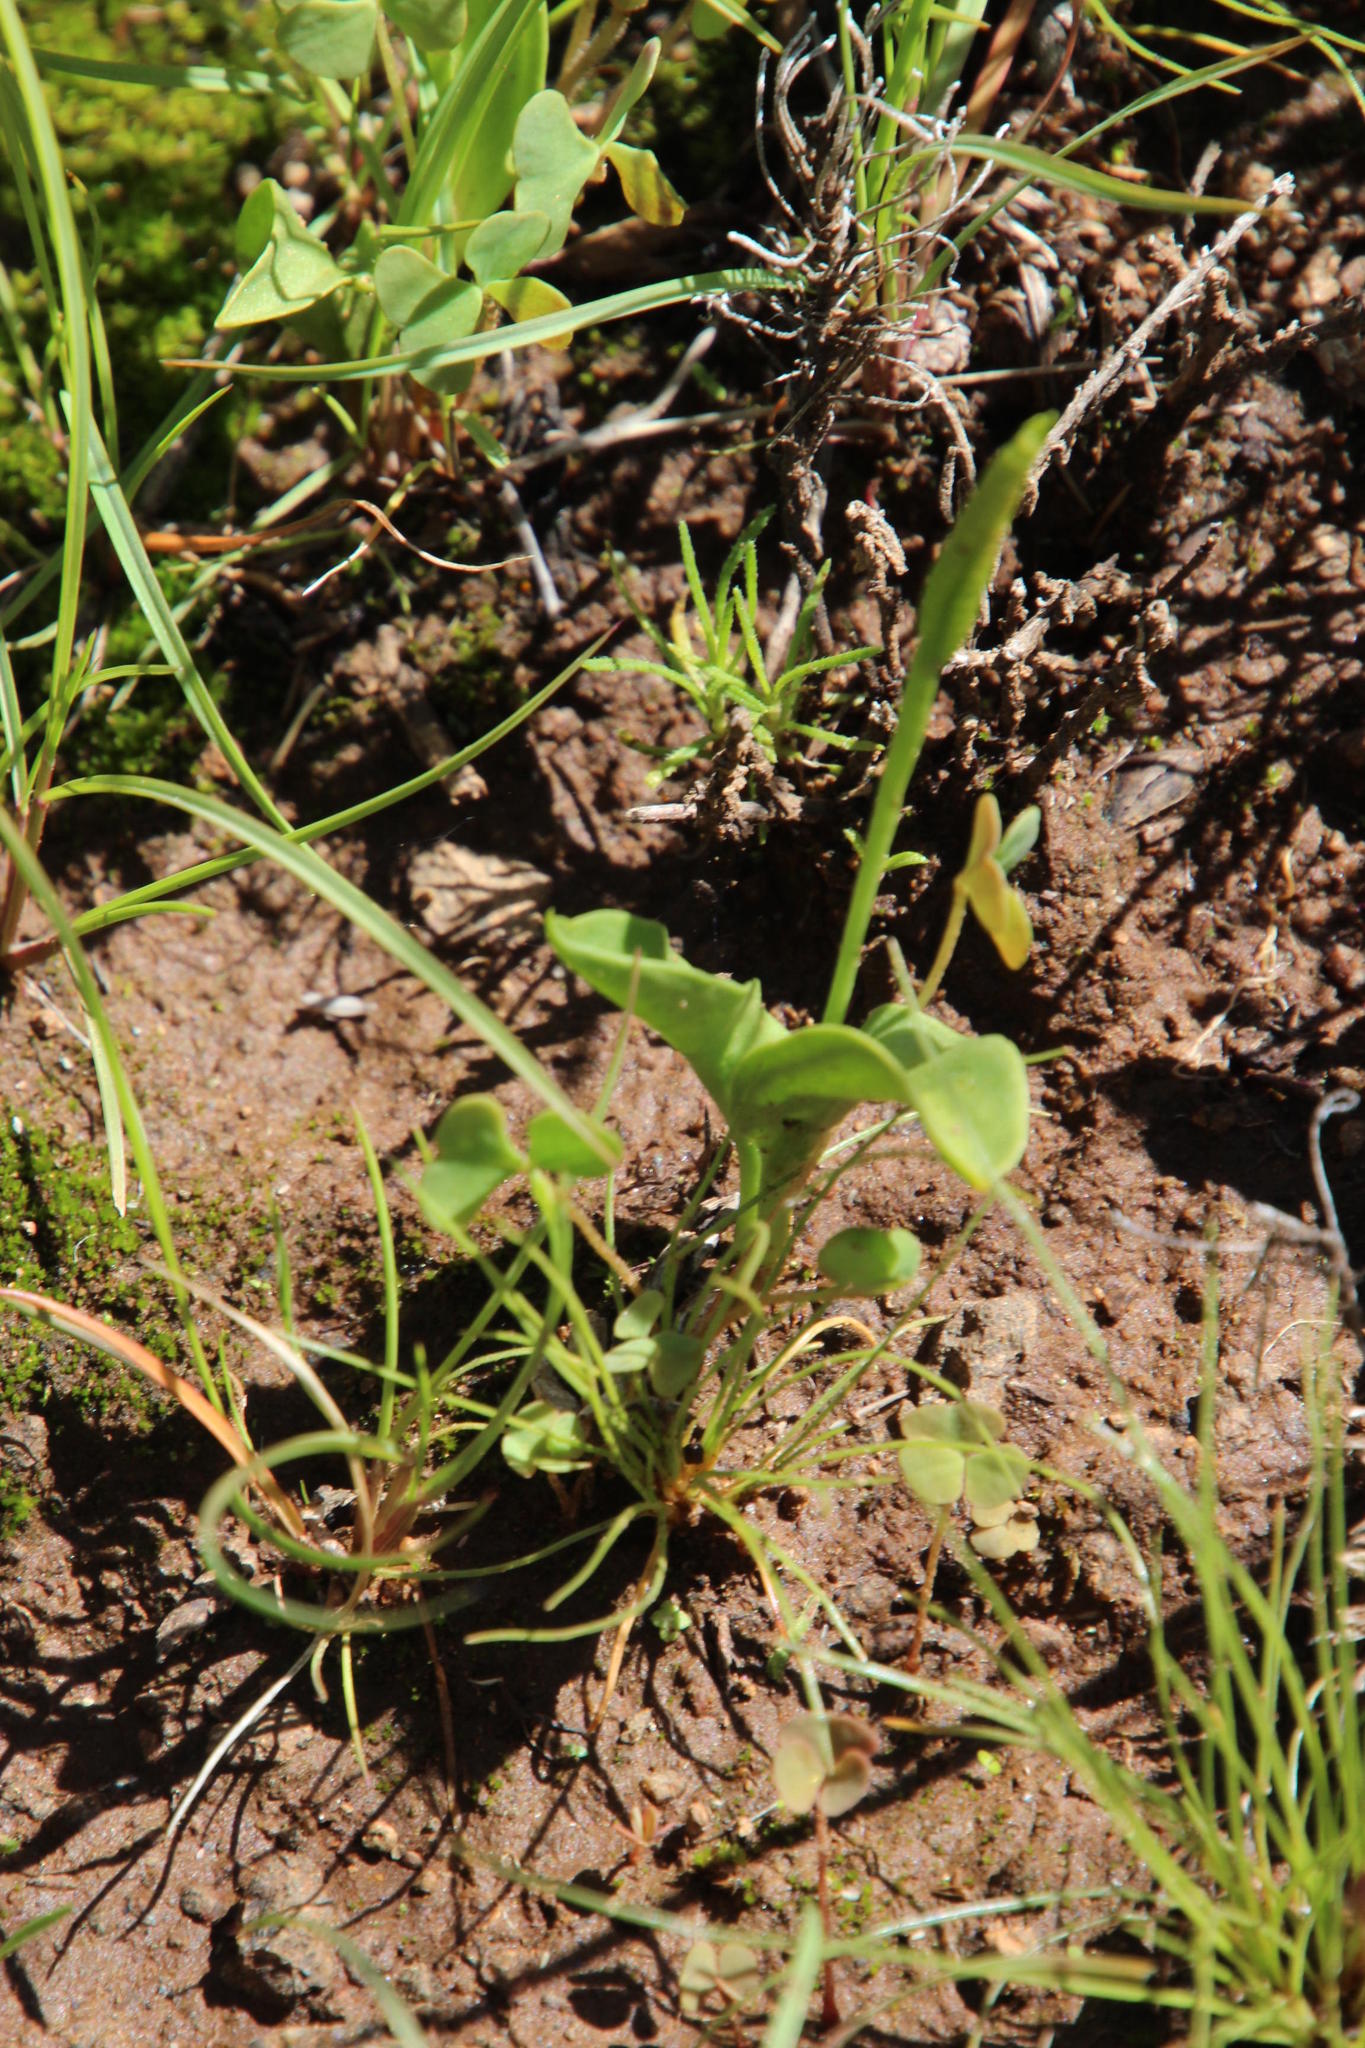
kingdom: Plantae
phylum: Tracheophyta
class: Polypodiopsida
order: Ophioglossales
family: Ophioglossaceae
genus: Ophioglossum
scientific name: Ophioglossum polyphyllum
